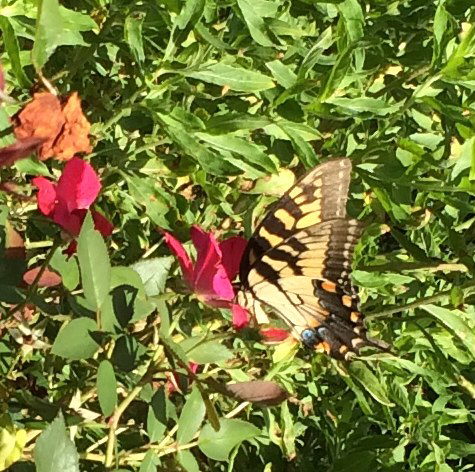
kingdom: Animalia
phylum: Arthropoda
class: Insecta
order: Lepidoptera
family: Papilionidae
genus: Papilio
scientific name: Papilio glaucus
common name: Tiger swallowtail
